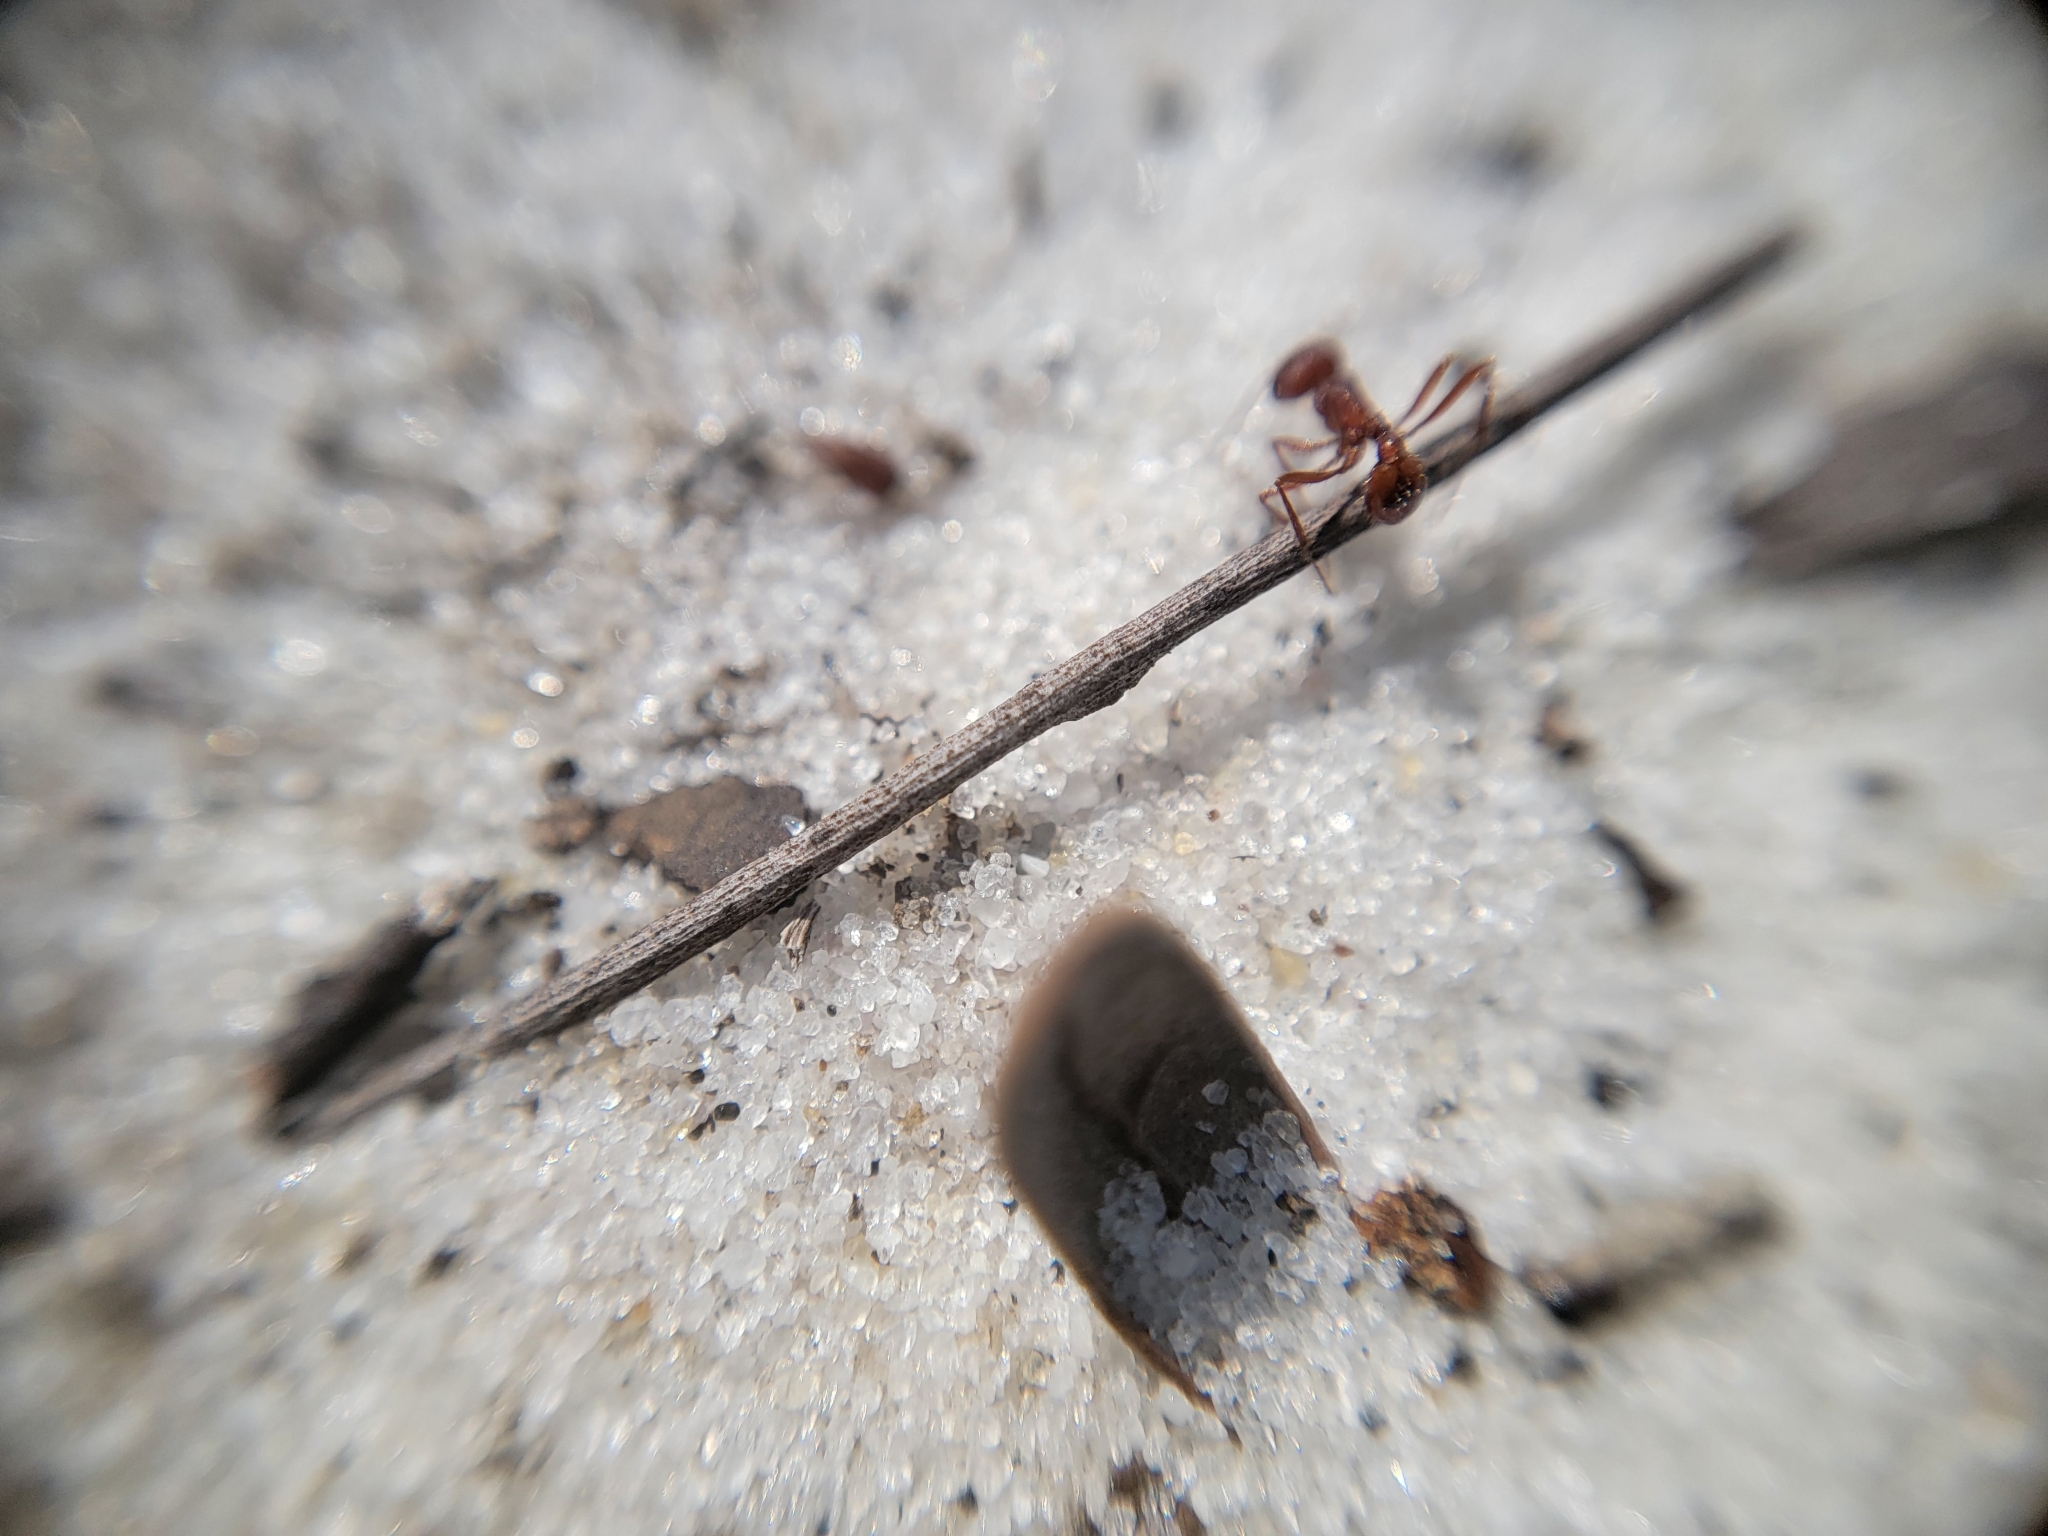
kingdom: Animalia
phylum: Arthropoda
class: Insecta
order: Hymenoptera
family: Formicidae
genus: Pogonomyrmex
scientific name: Pogonomyrmex badius
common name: Florida harvester ant
